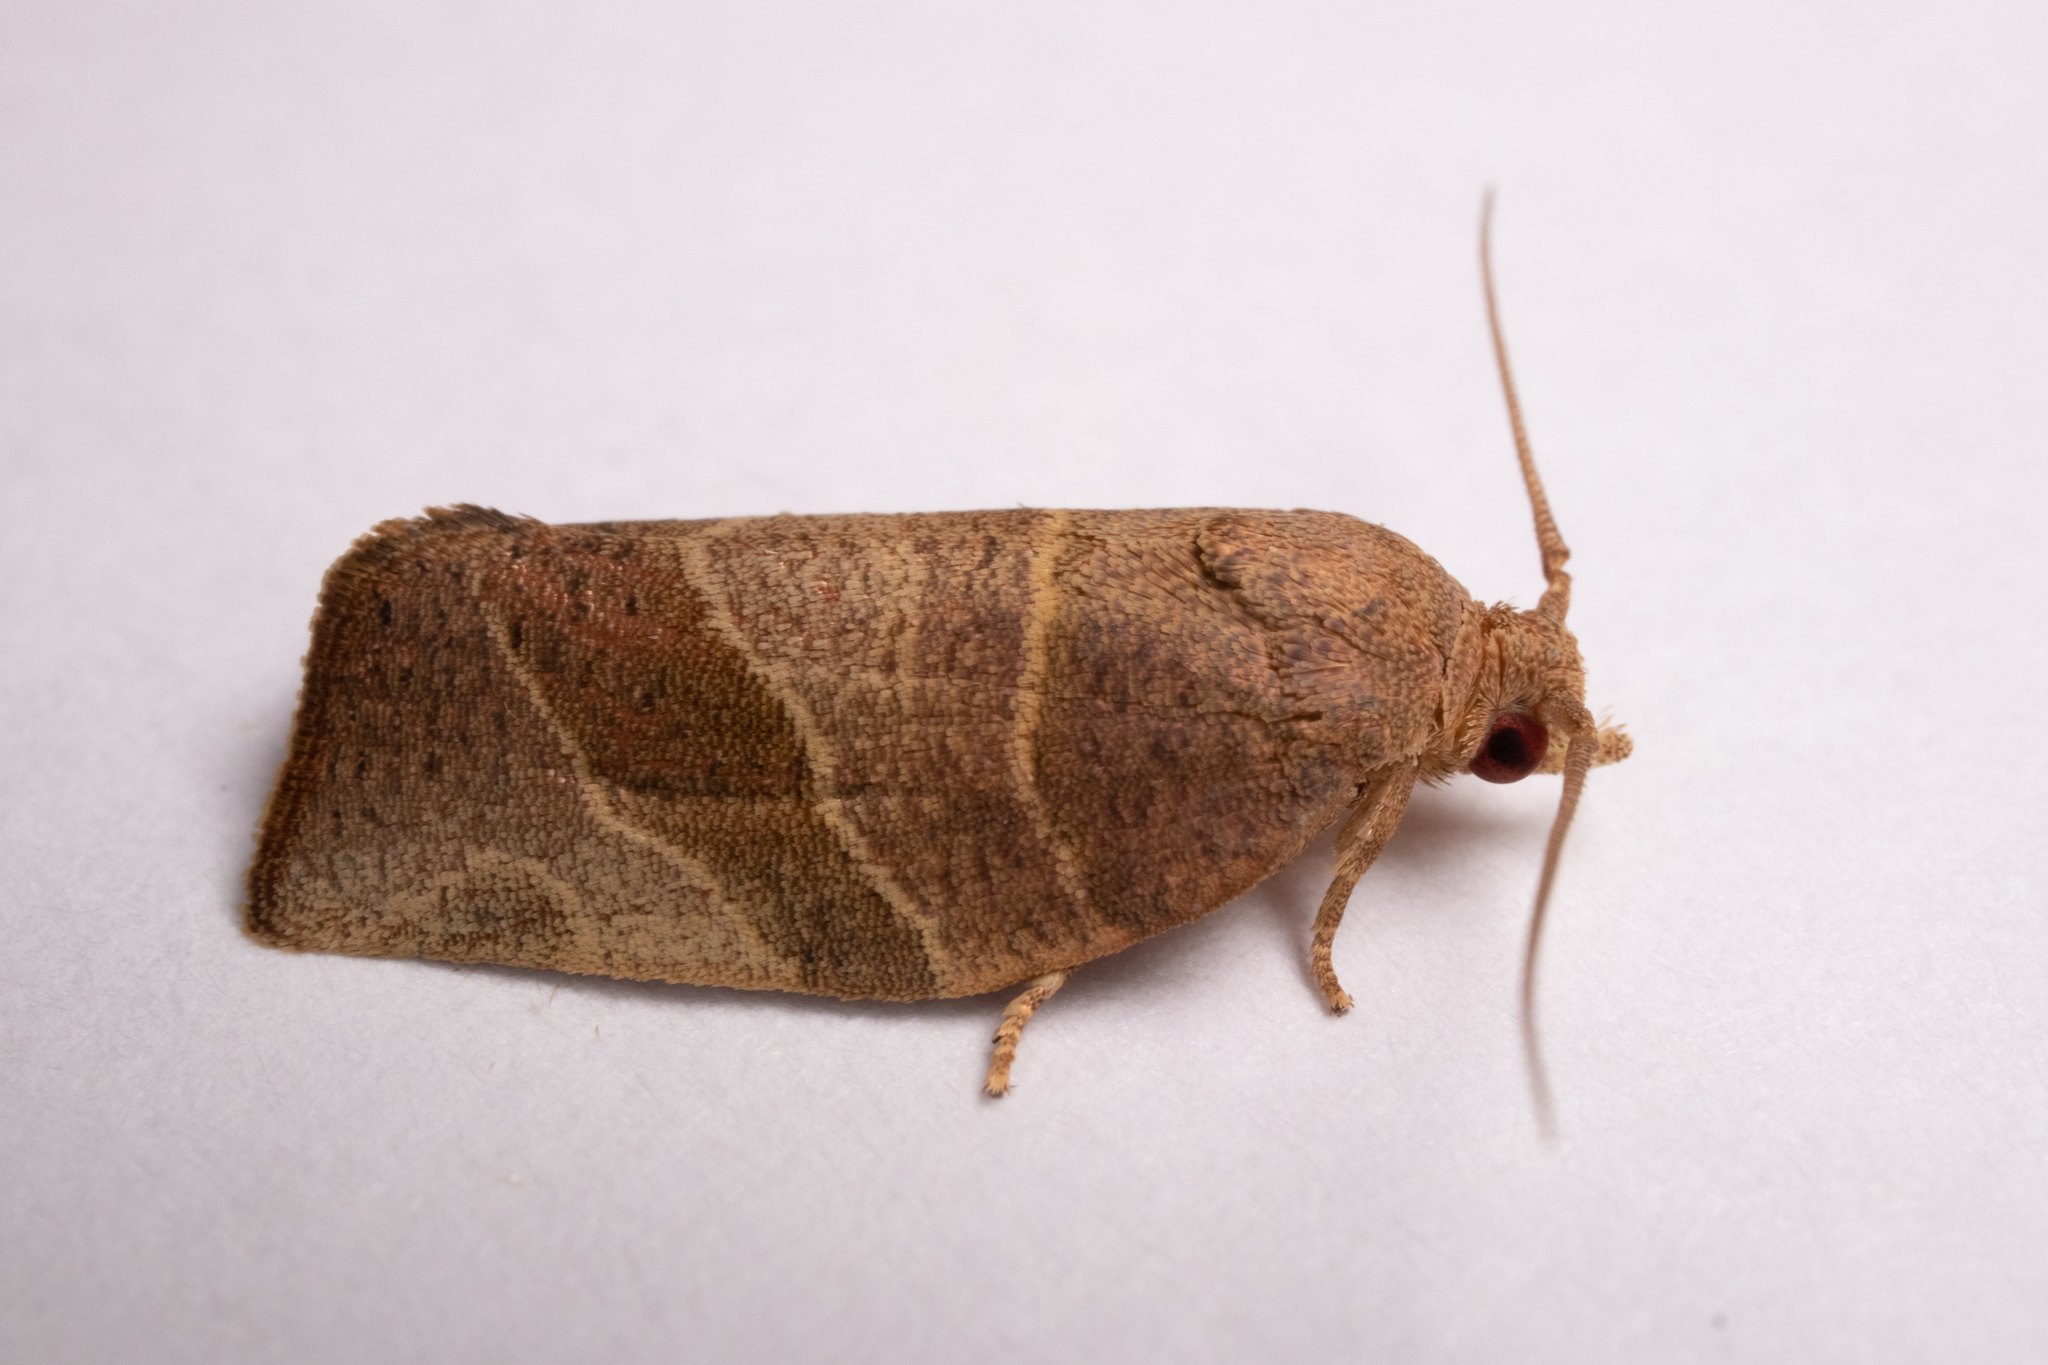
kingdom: Animalia
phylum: Arthropoda
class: Insecta
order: Lepidoptera
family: Tortricidae
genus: Pandemis
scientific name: Pandemis limitata
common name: Three-lined leafroller moth
